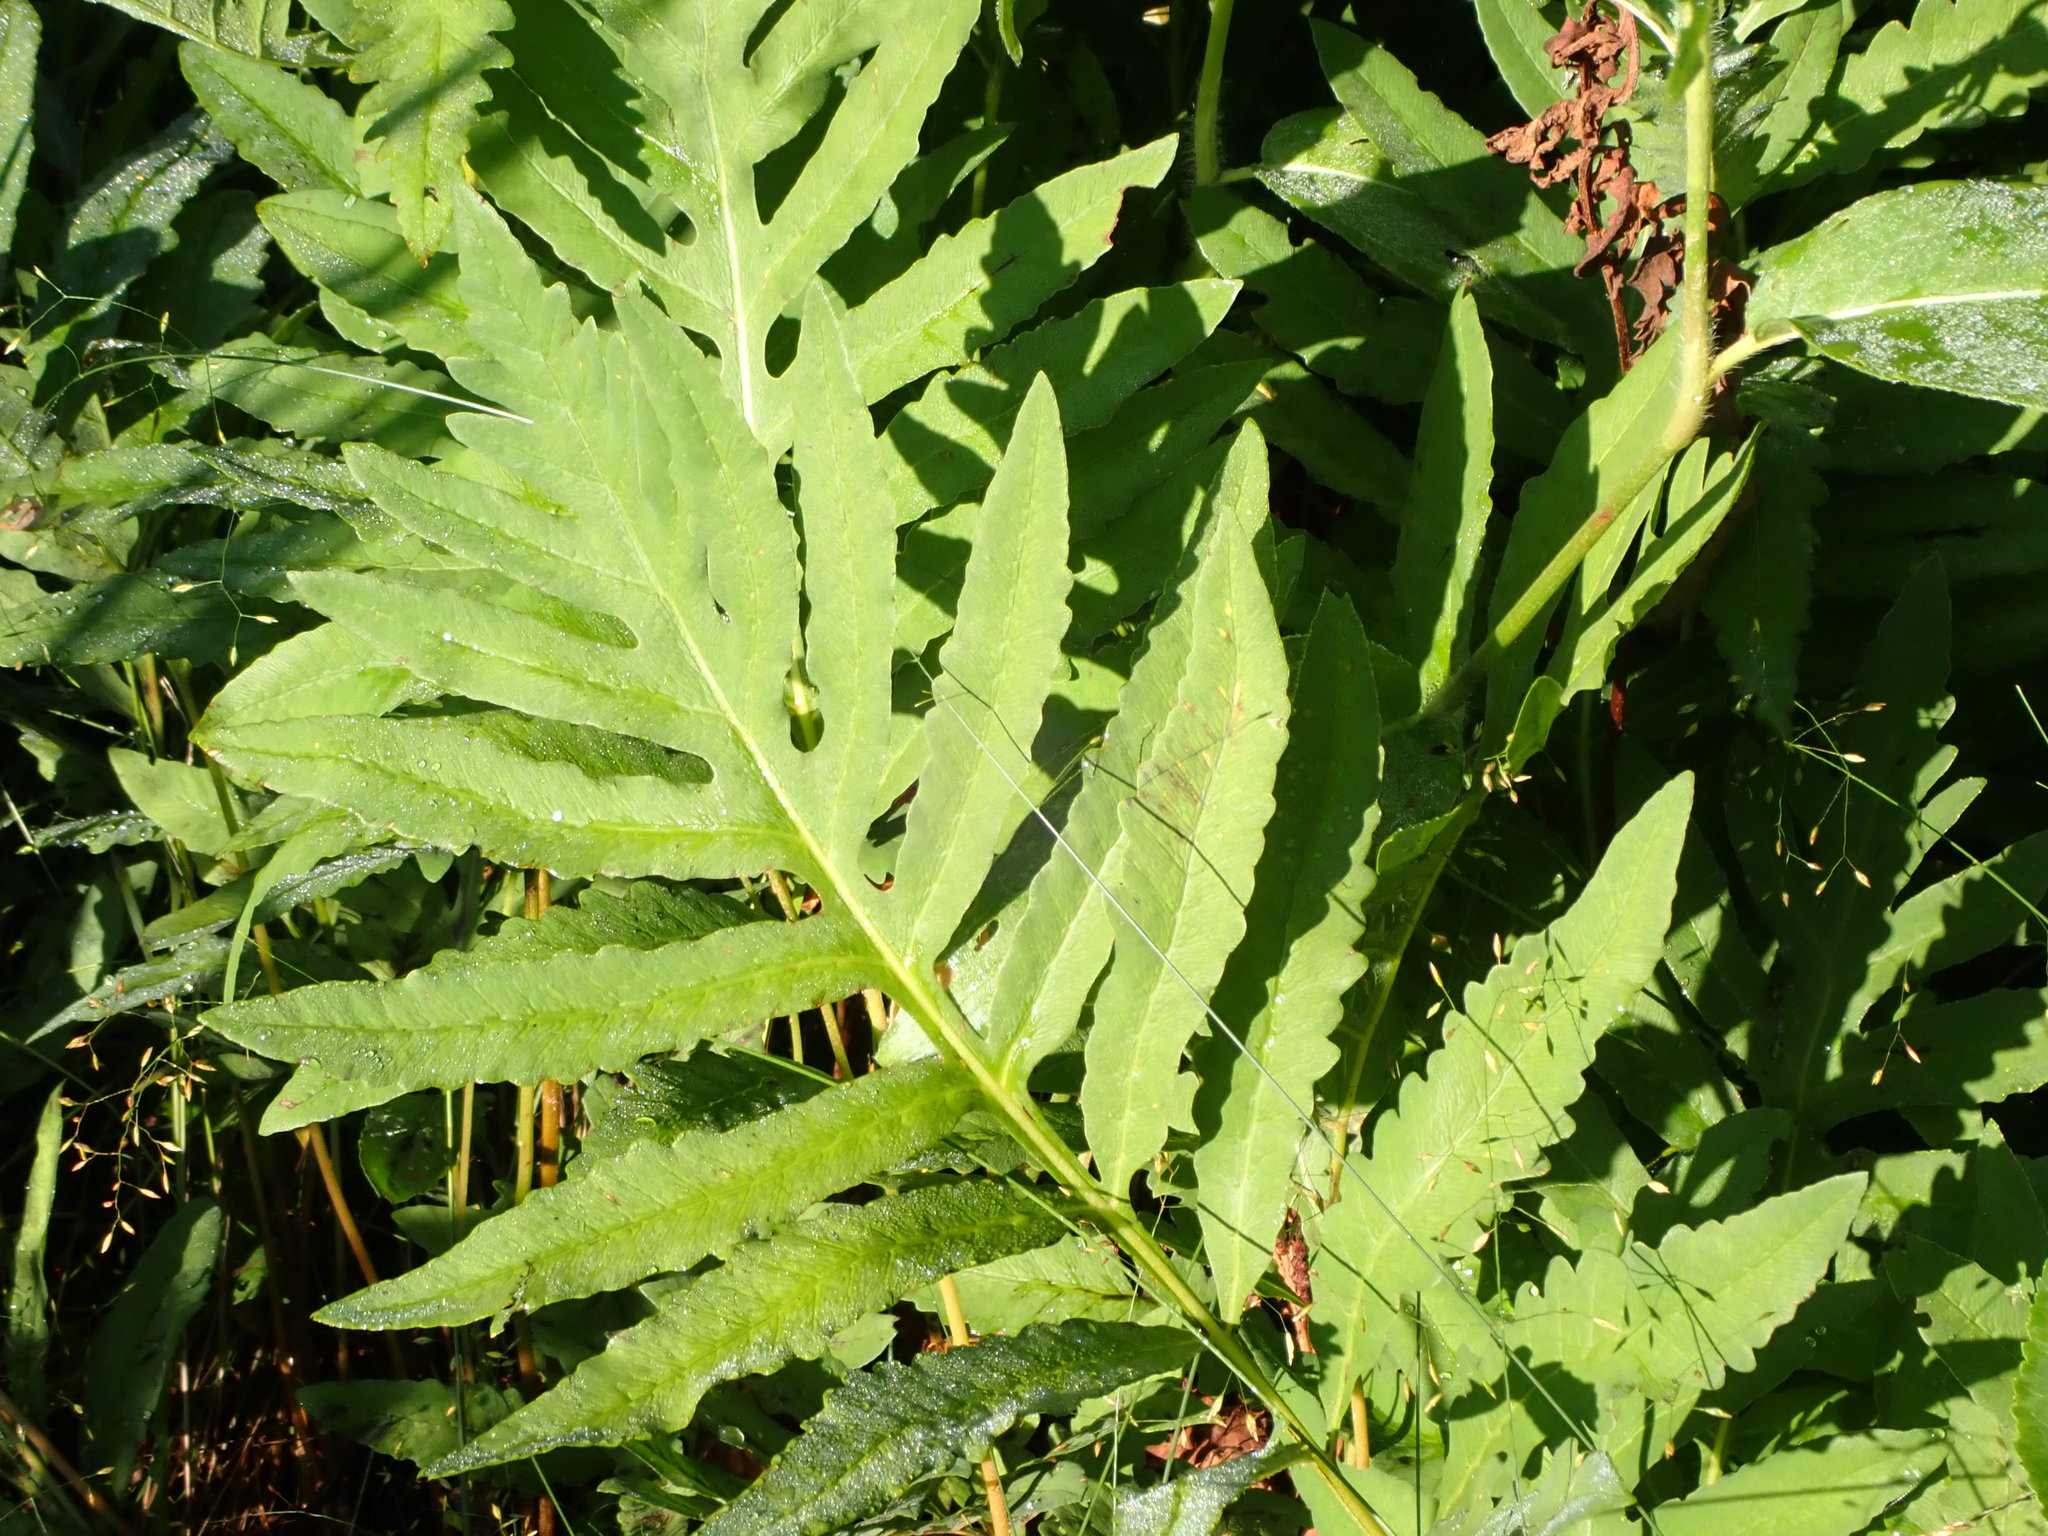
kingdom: Plantae
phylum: Tracheophyta
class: Polypodiopsida
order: Polypodiales
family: Onocleaceae
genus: Onoclea
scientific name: Onoclea sensibilis
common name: Sensitive fern
